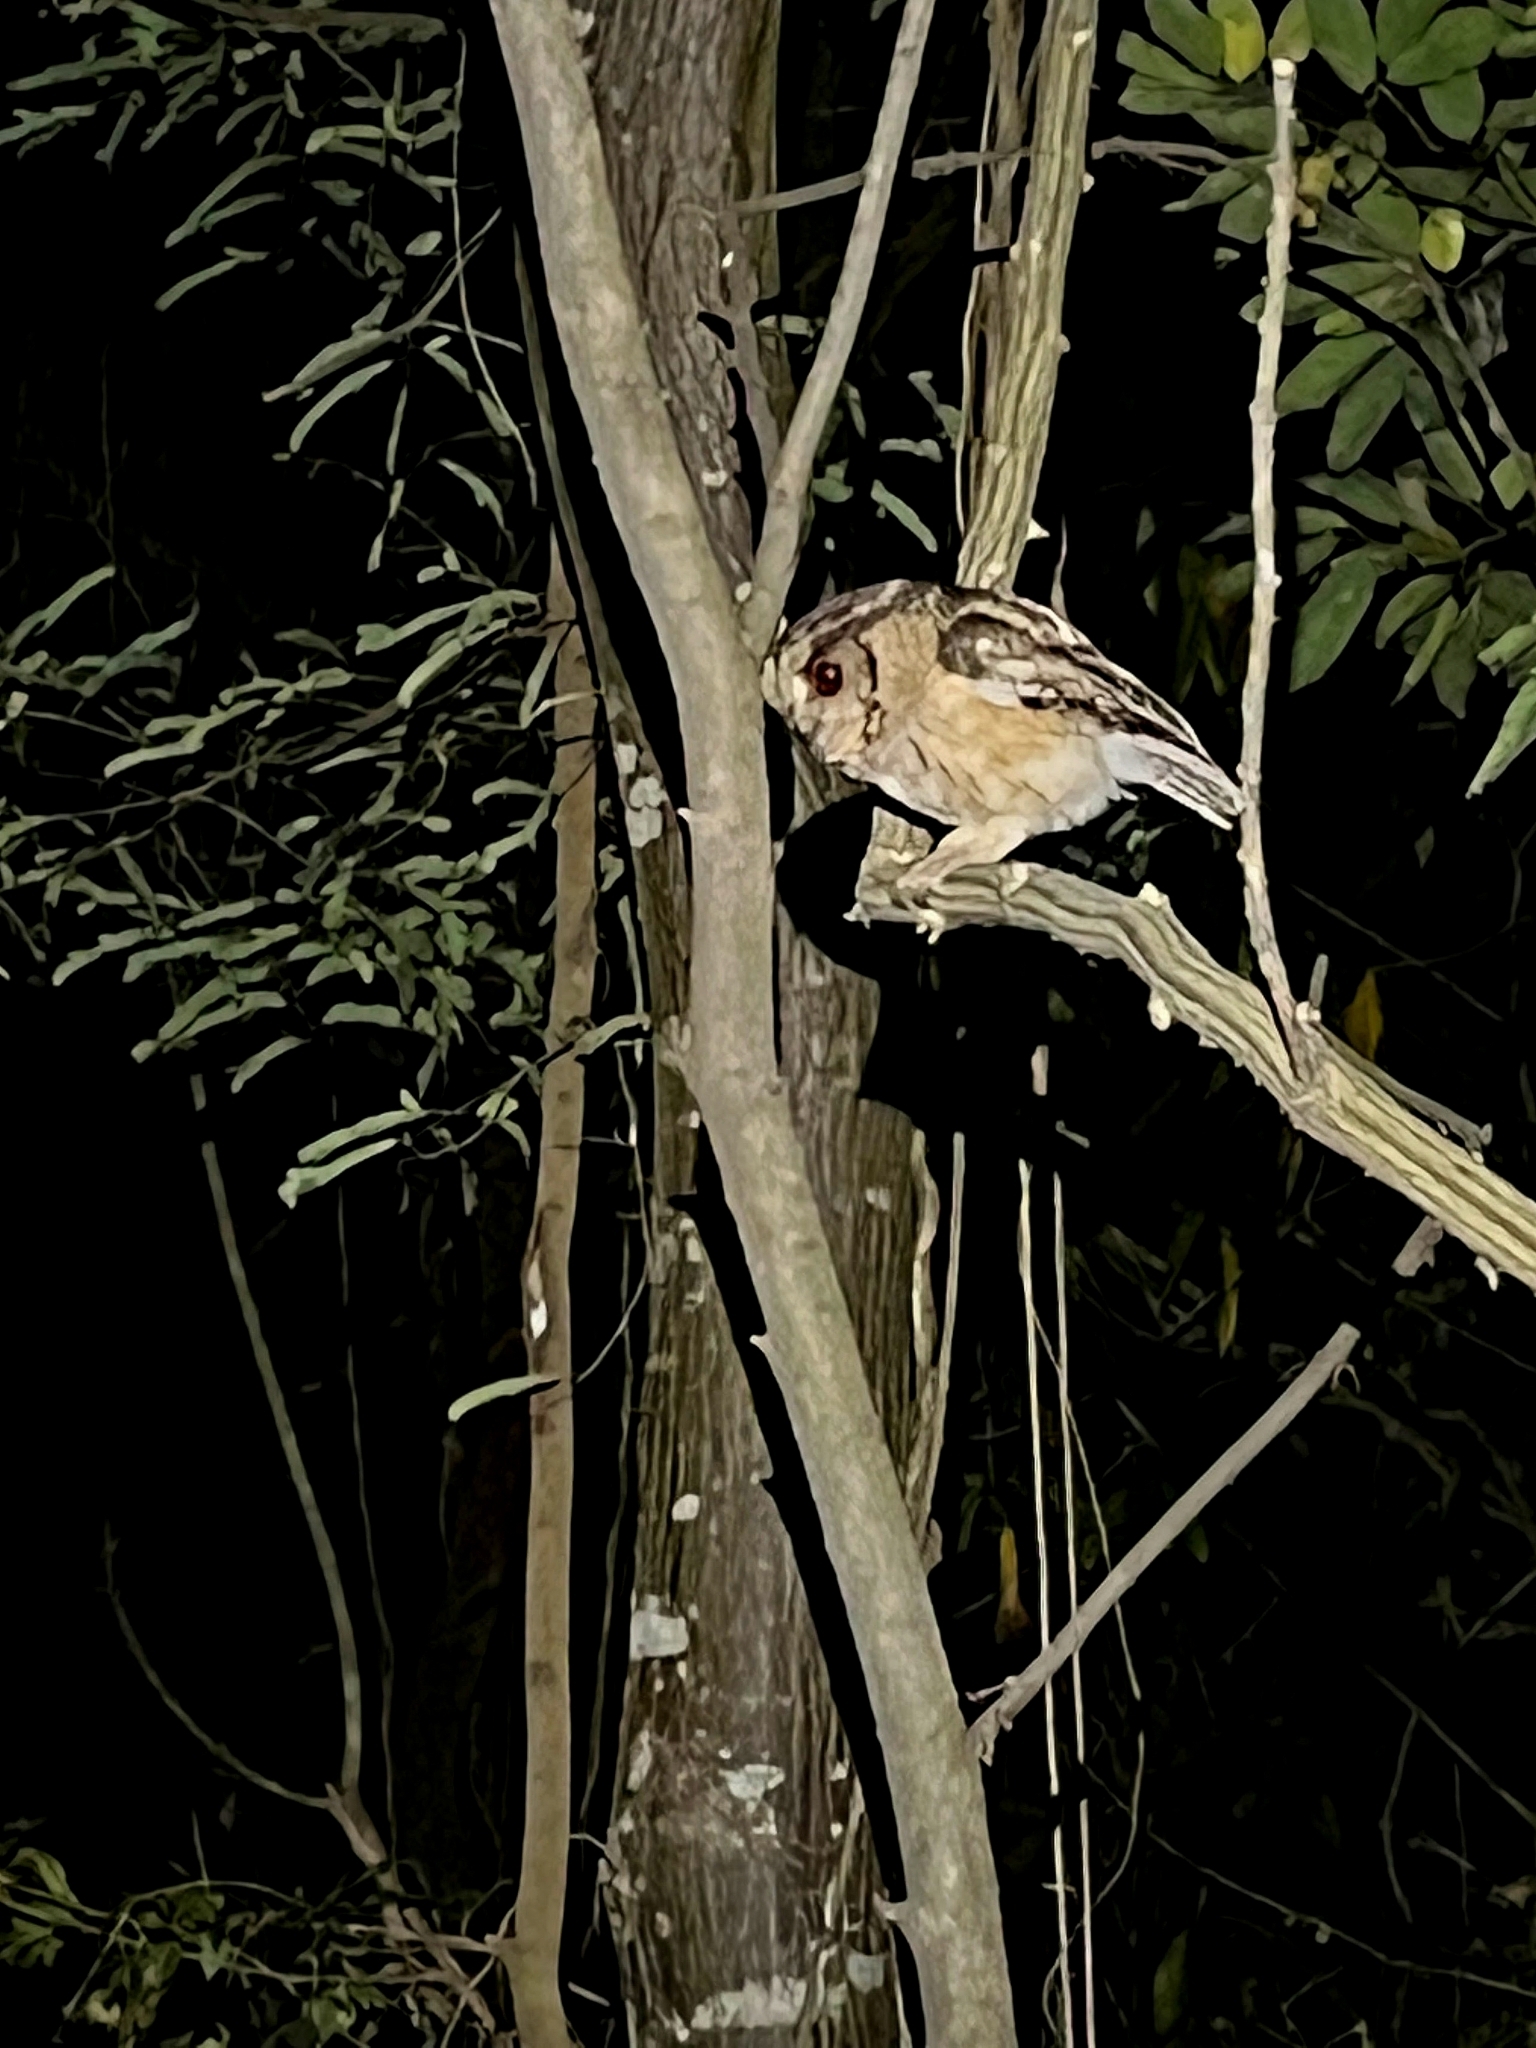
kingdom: Animalia
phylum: Chordata
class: Aves
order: Strigiformes
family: Strigidae
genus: Otus
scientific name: Otus bakkamoena
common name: Indian scops owl
